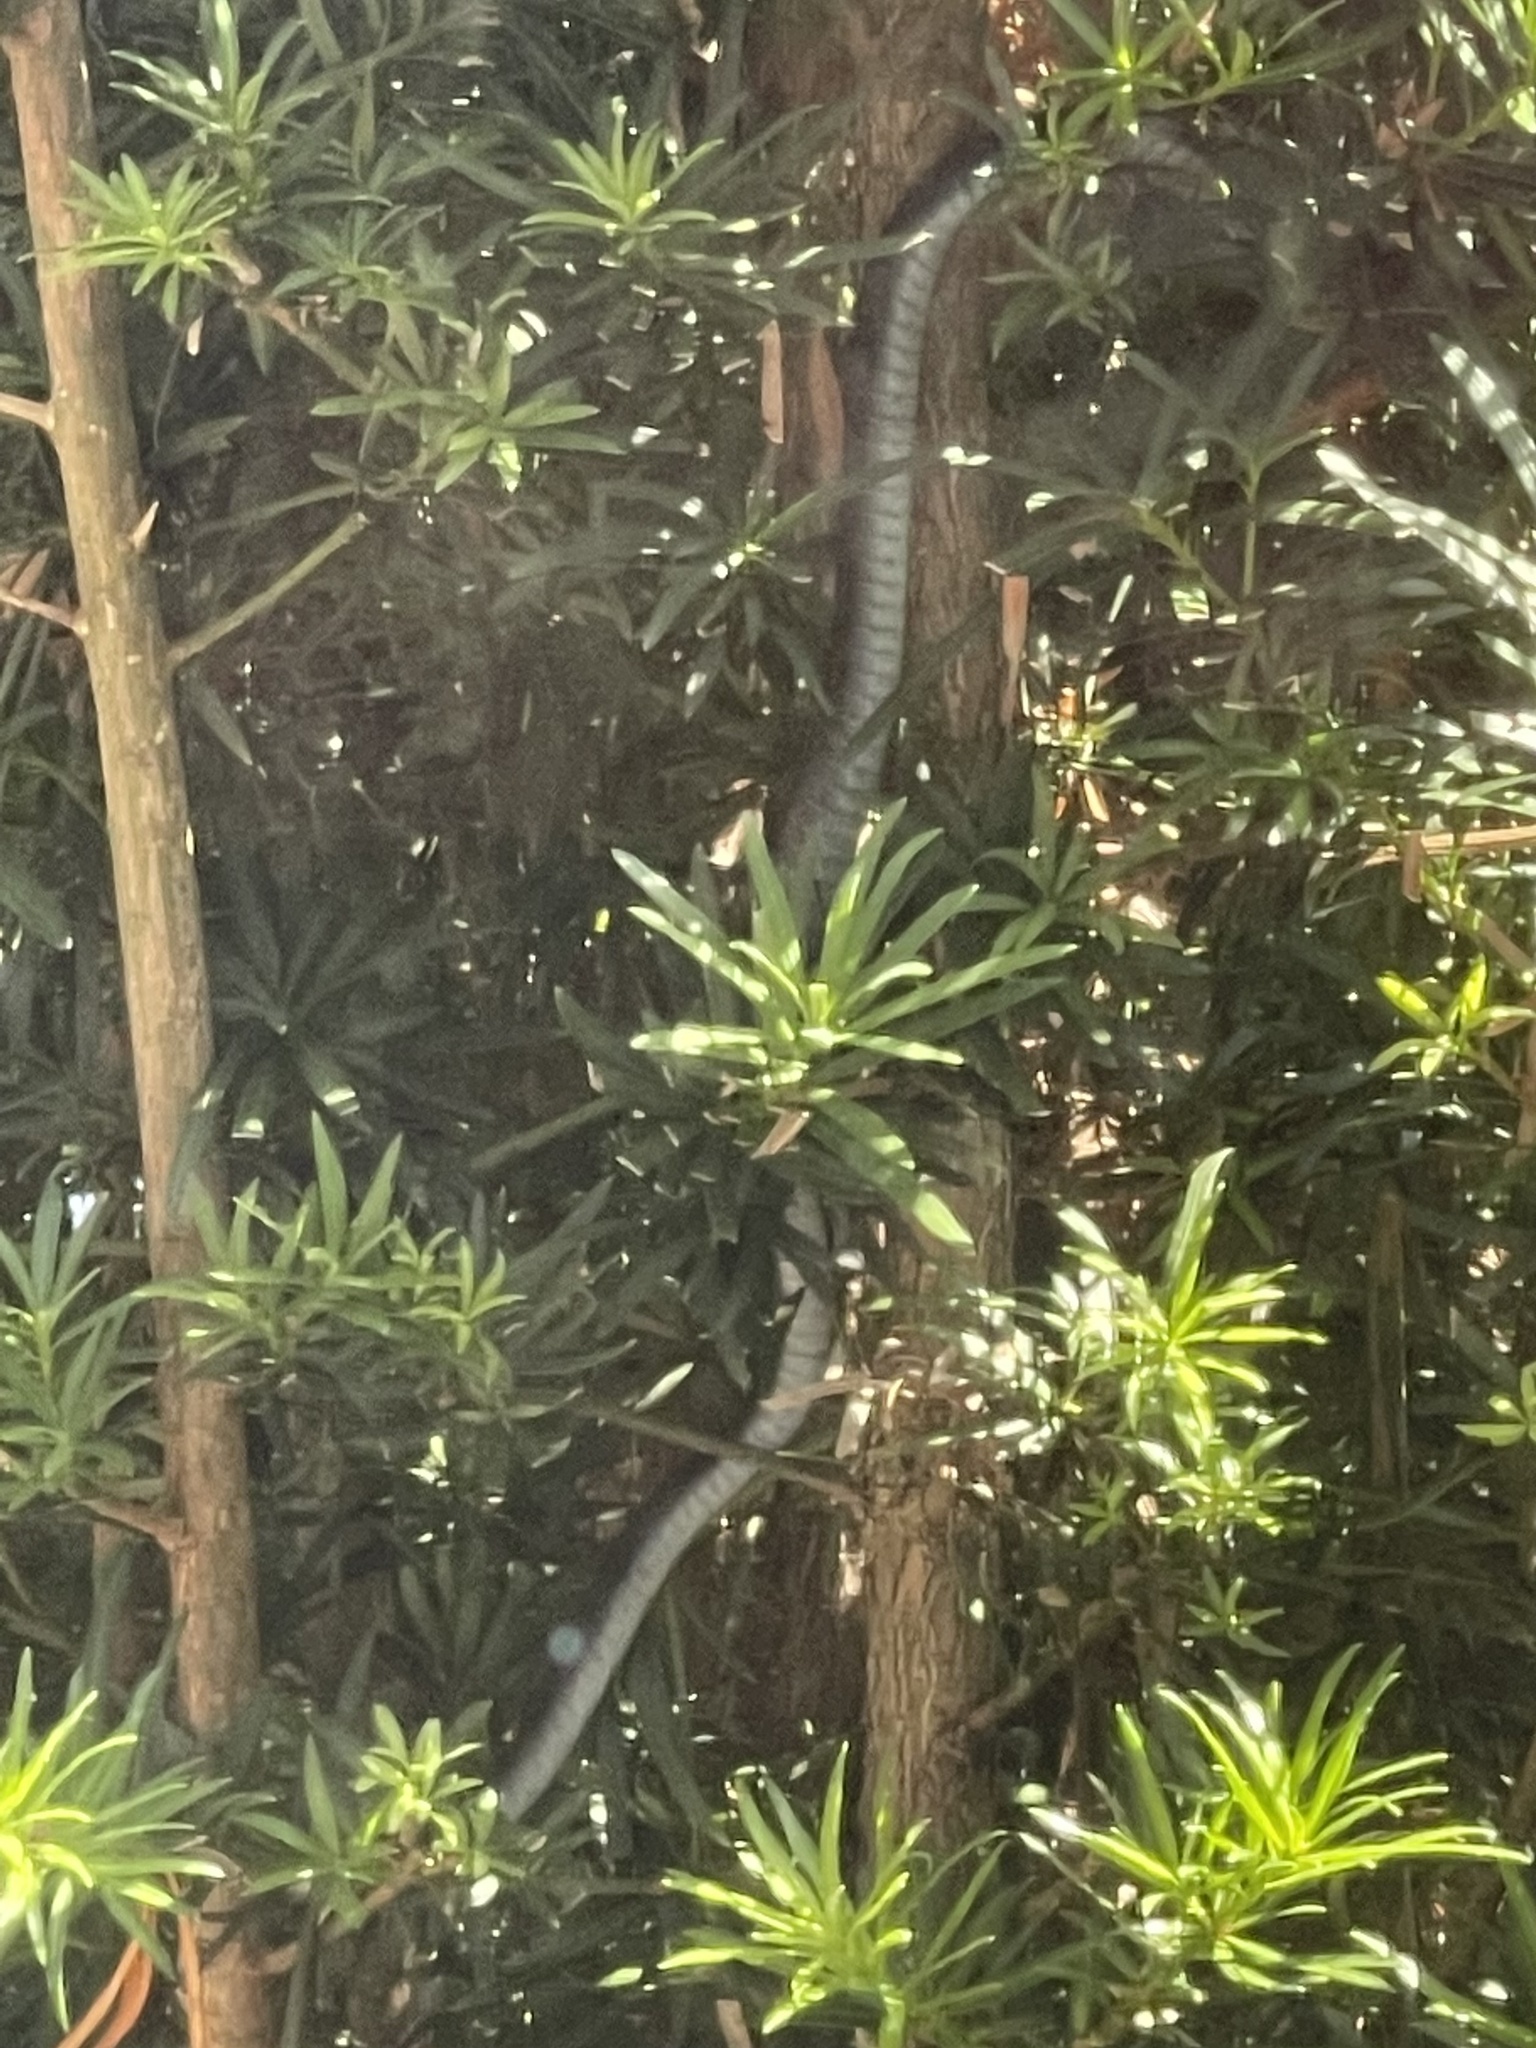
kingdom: Animalia
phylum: Chordata
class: Squamata
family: Colubridae
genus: Coluber
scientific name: Coluber constrictor
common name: Eastern racer
